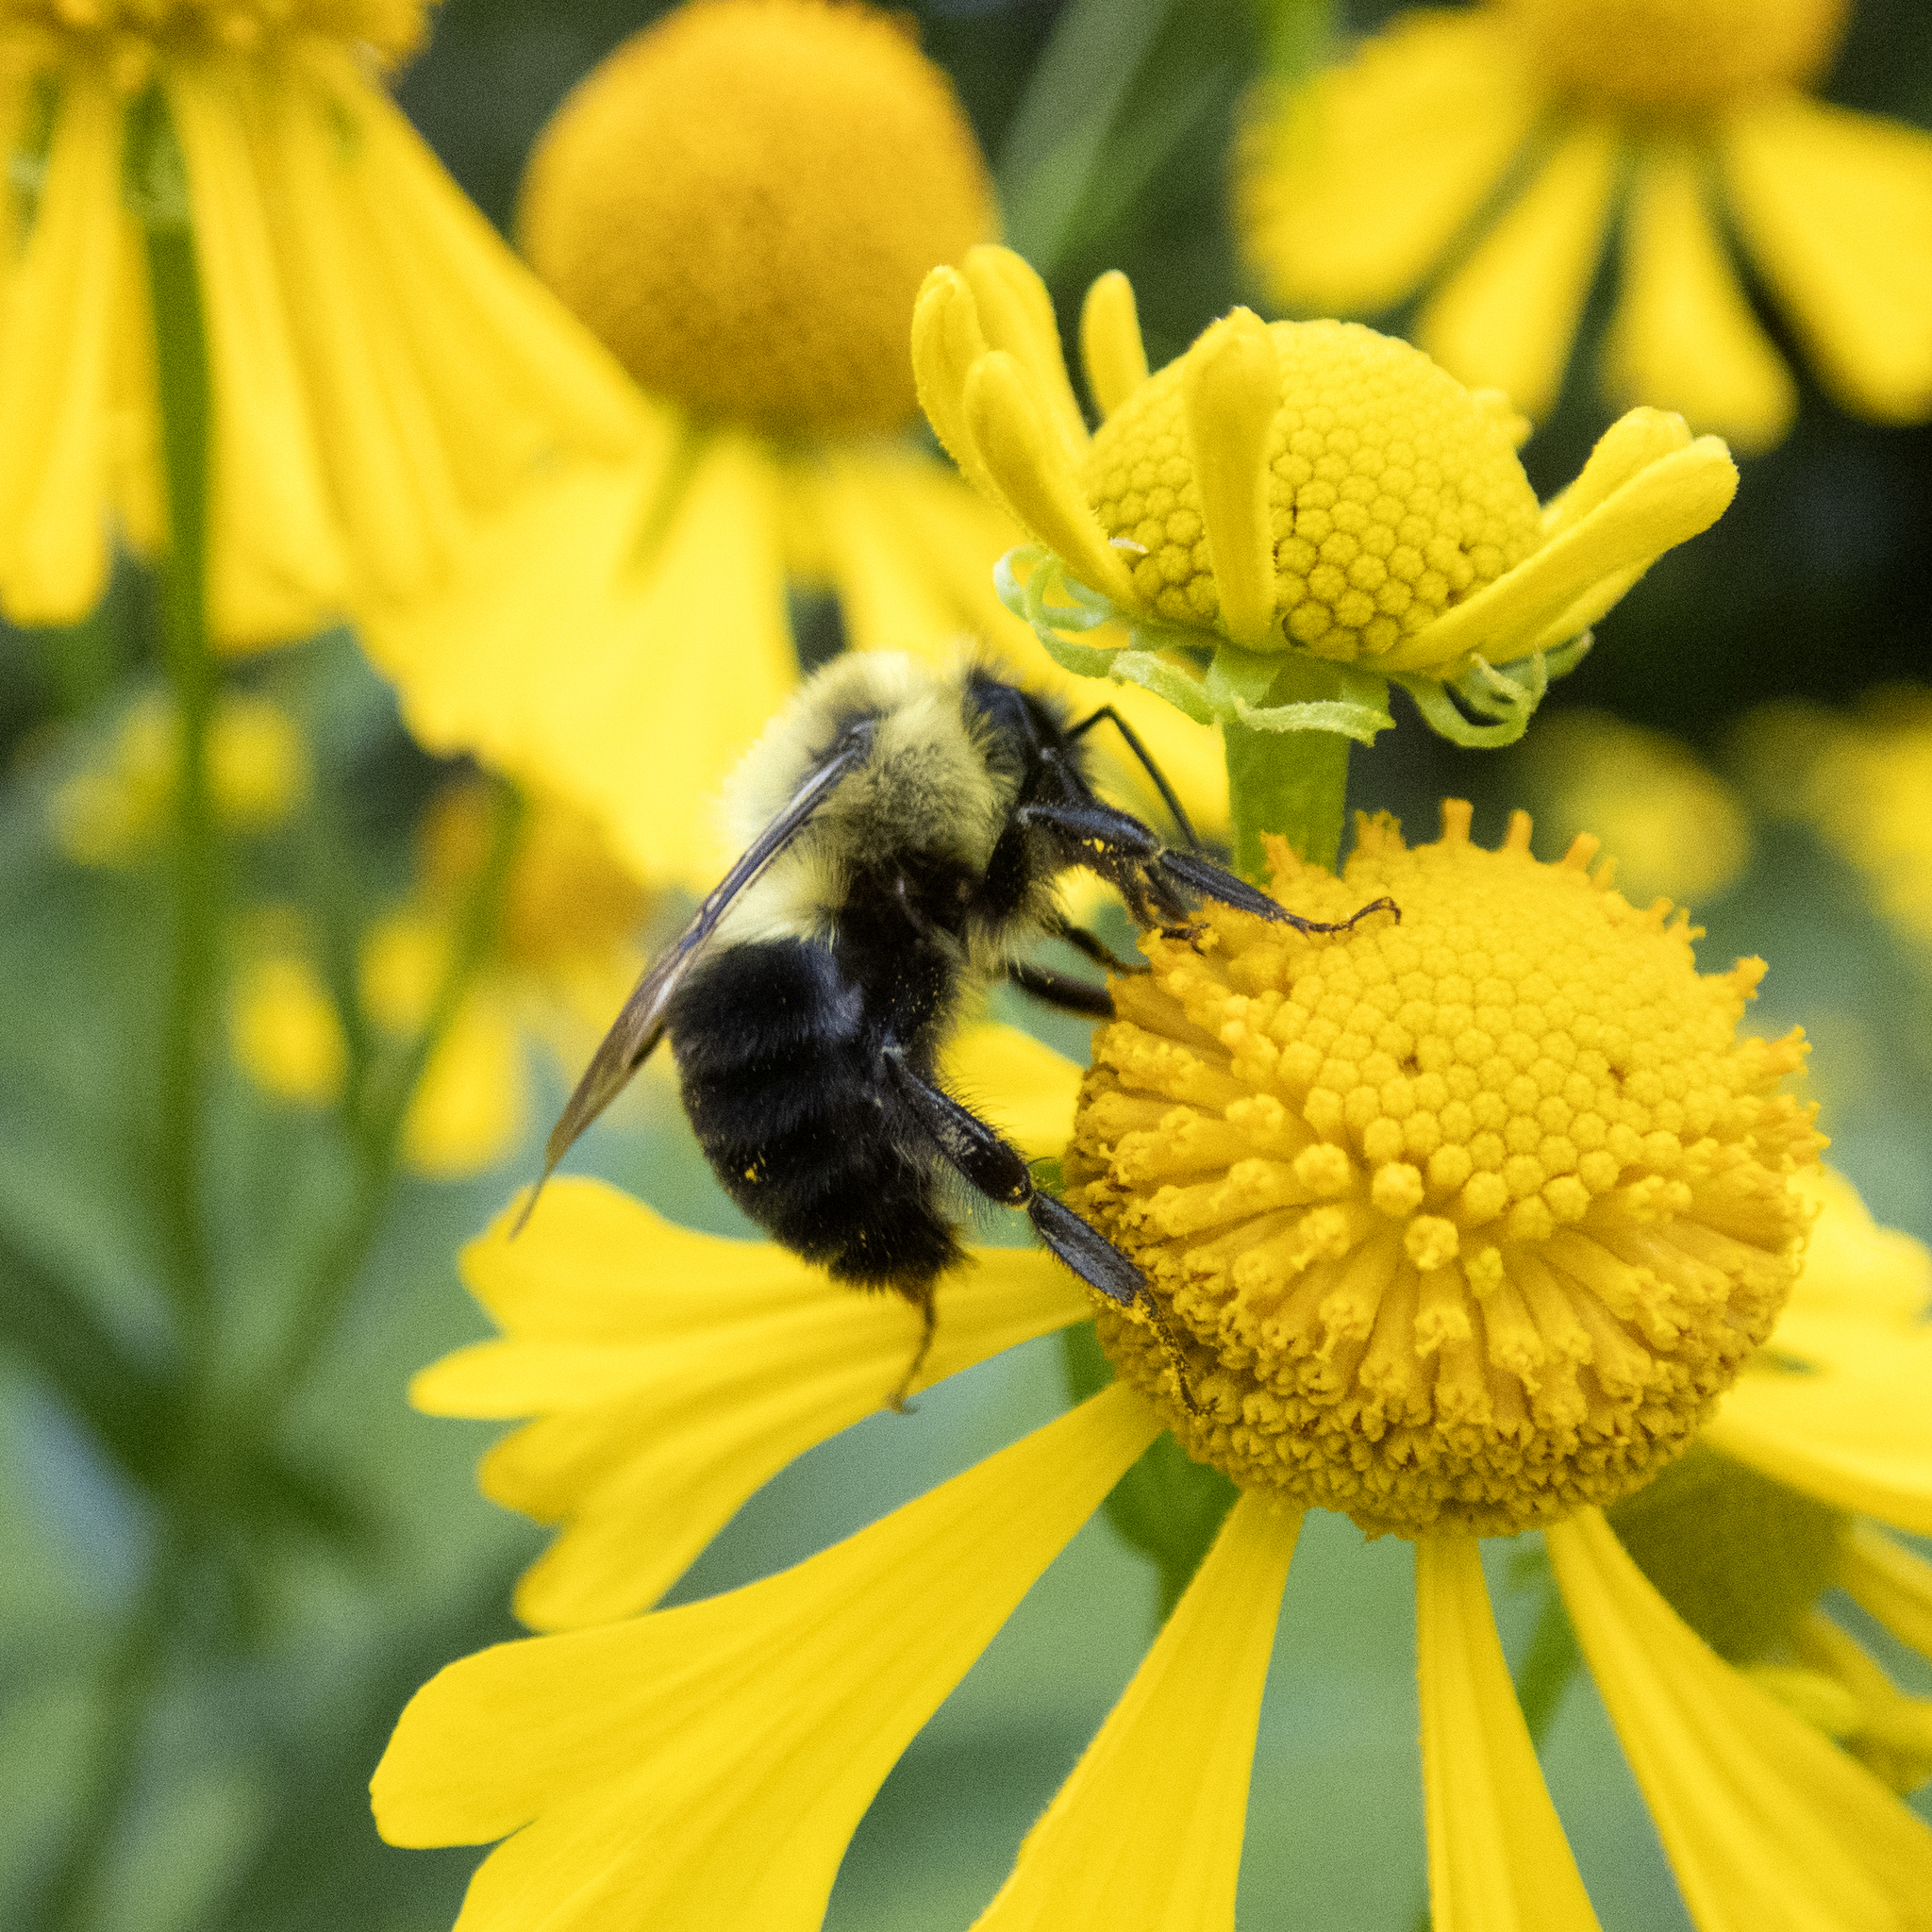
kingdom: Animalia
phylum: Arthropoda
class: Insecta
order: Hymenoptera
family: Apidae
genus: Bombus
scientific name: Bombus impatiens
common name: Common eastern bumble bee
